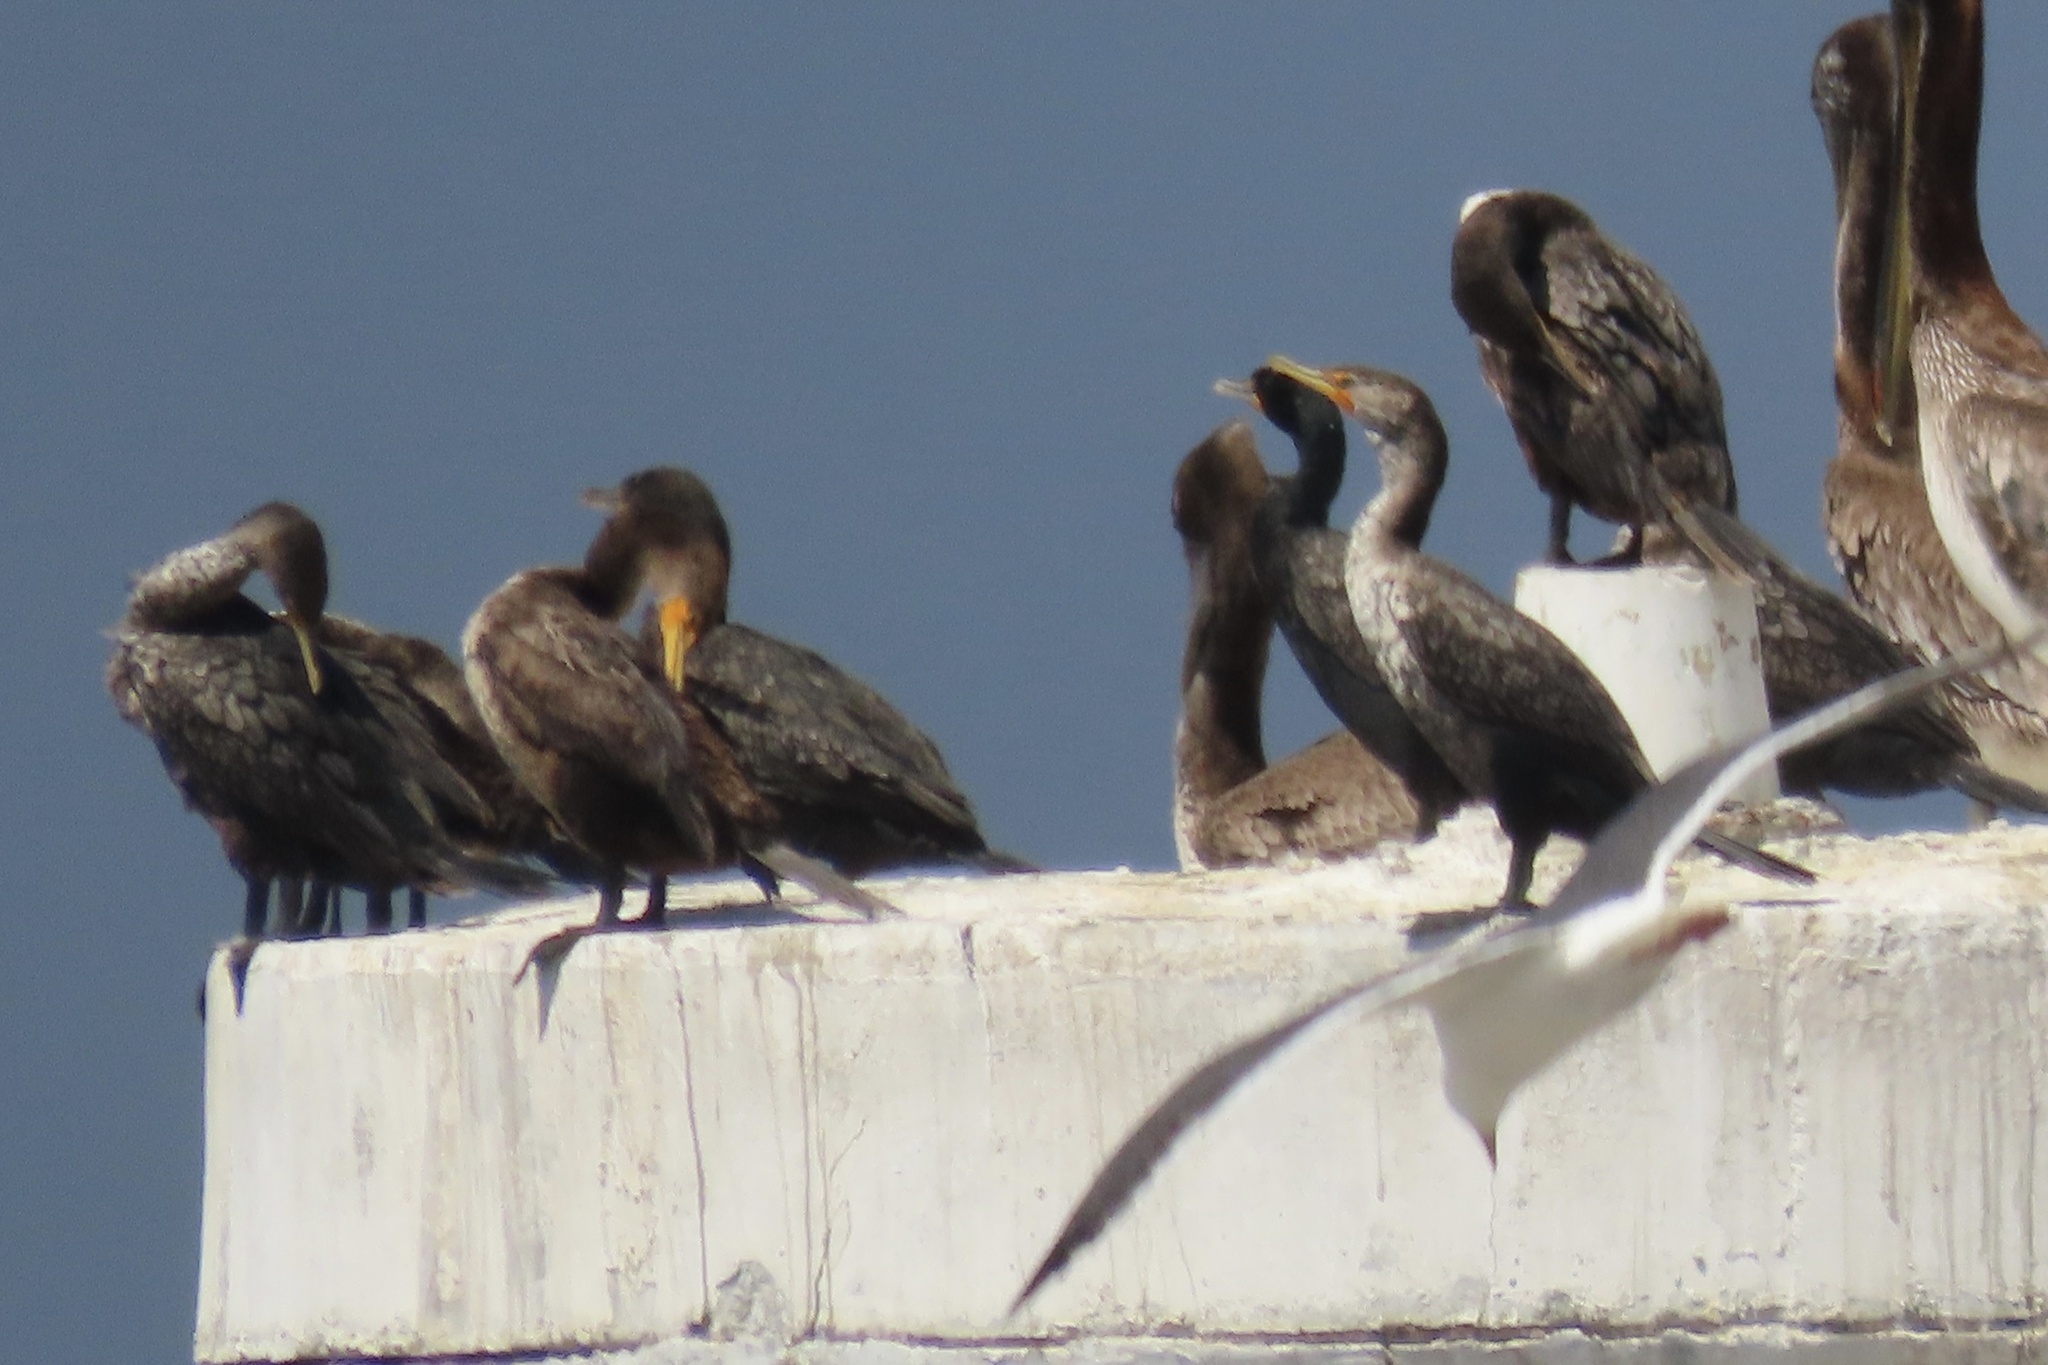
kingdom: Animalia
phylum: Chordata
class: Aves
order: Suliformes
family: Phalacrocoracidae
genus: Phalacrocorax
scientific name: Phalacrocorax auritus
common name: Double-crested cormorant
